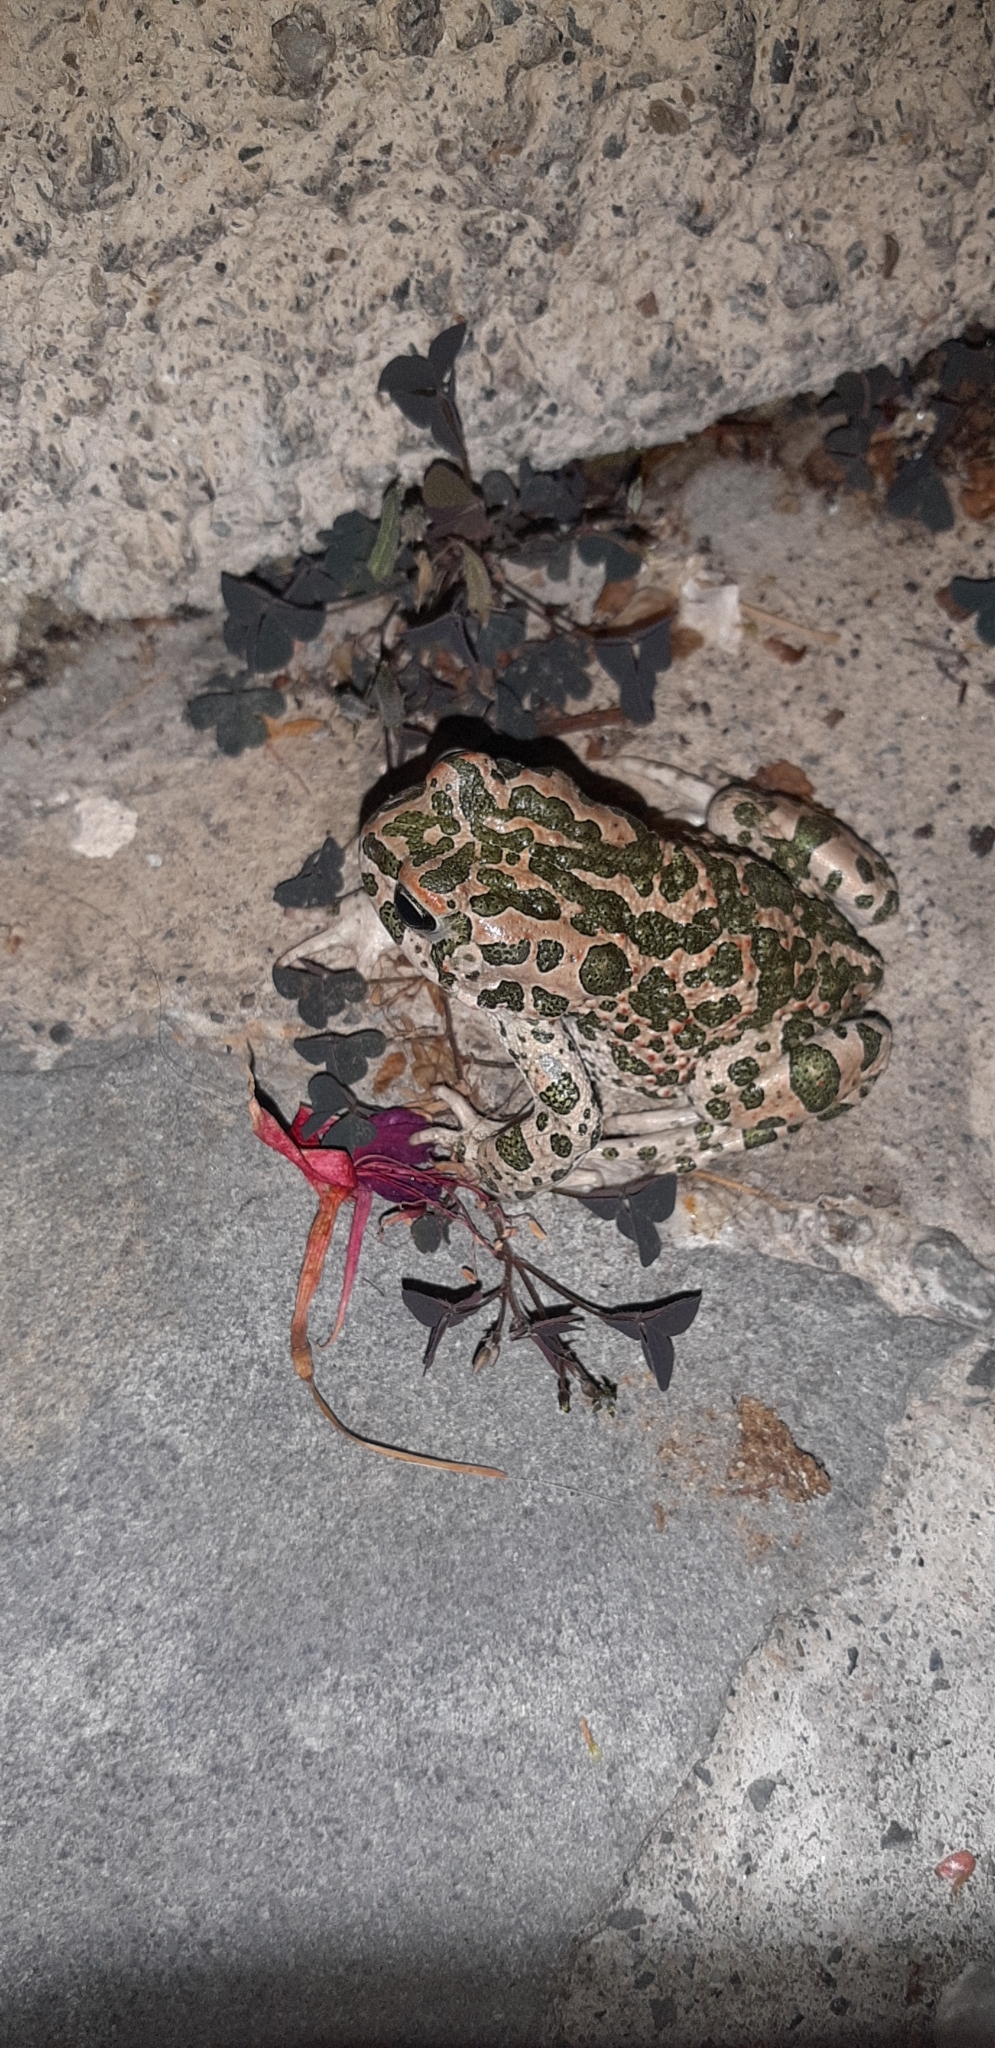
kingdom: Animalia
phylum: Chordata
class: Amphibia
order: Anura
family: Bufonidae
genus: Bufotes
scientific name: Bufotes viridis
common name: European green toad
